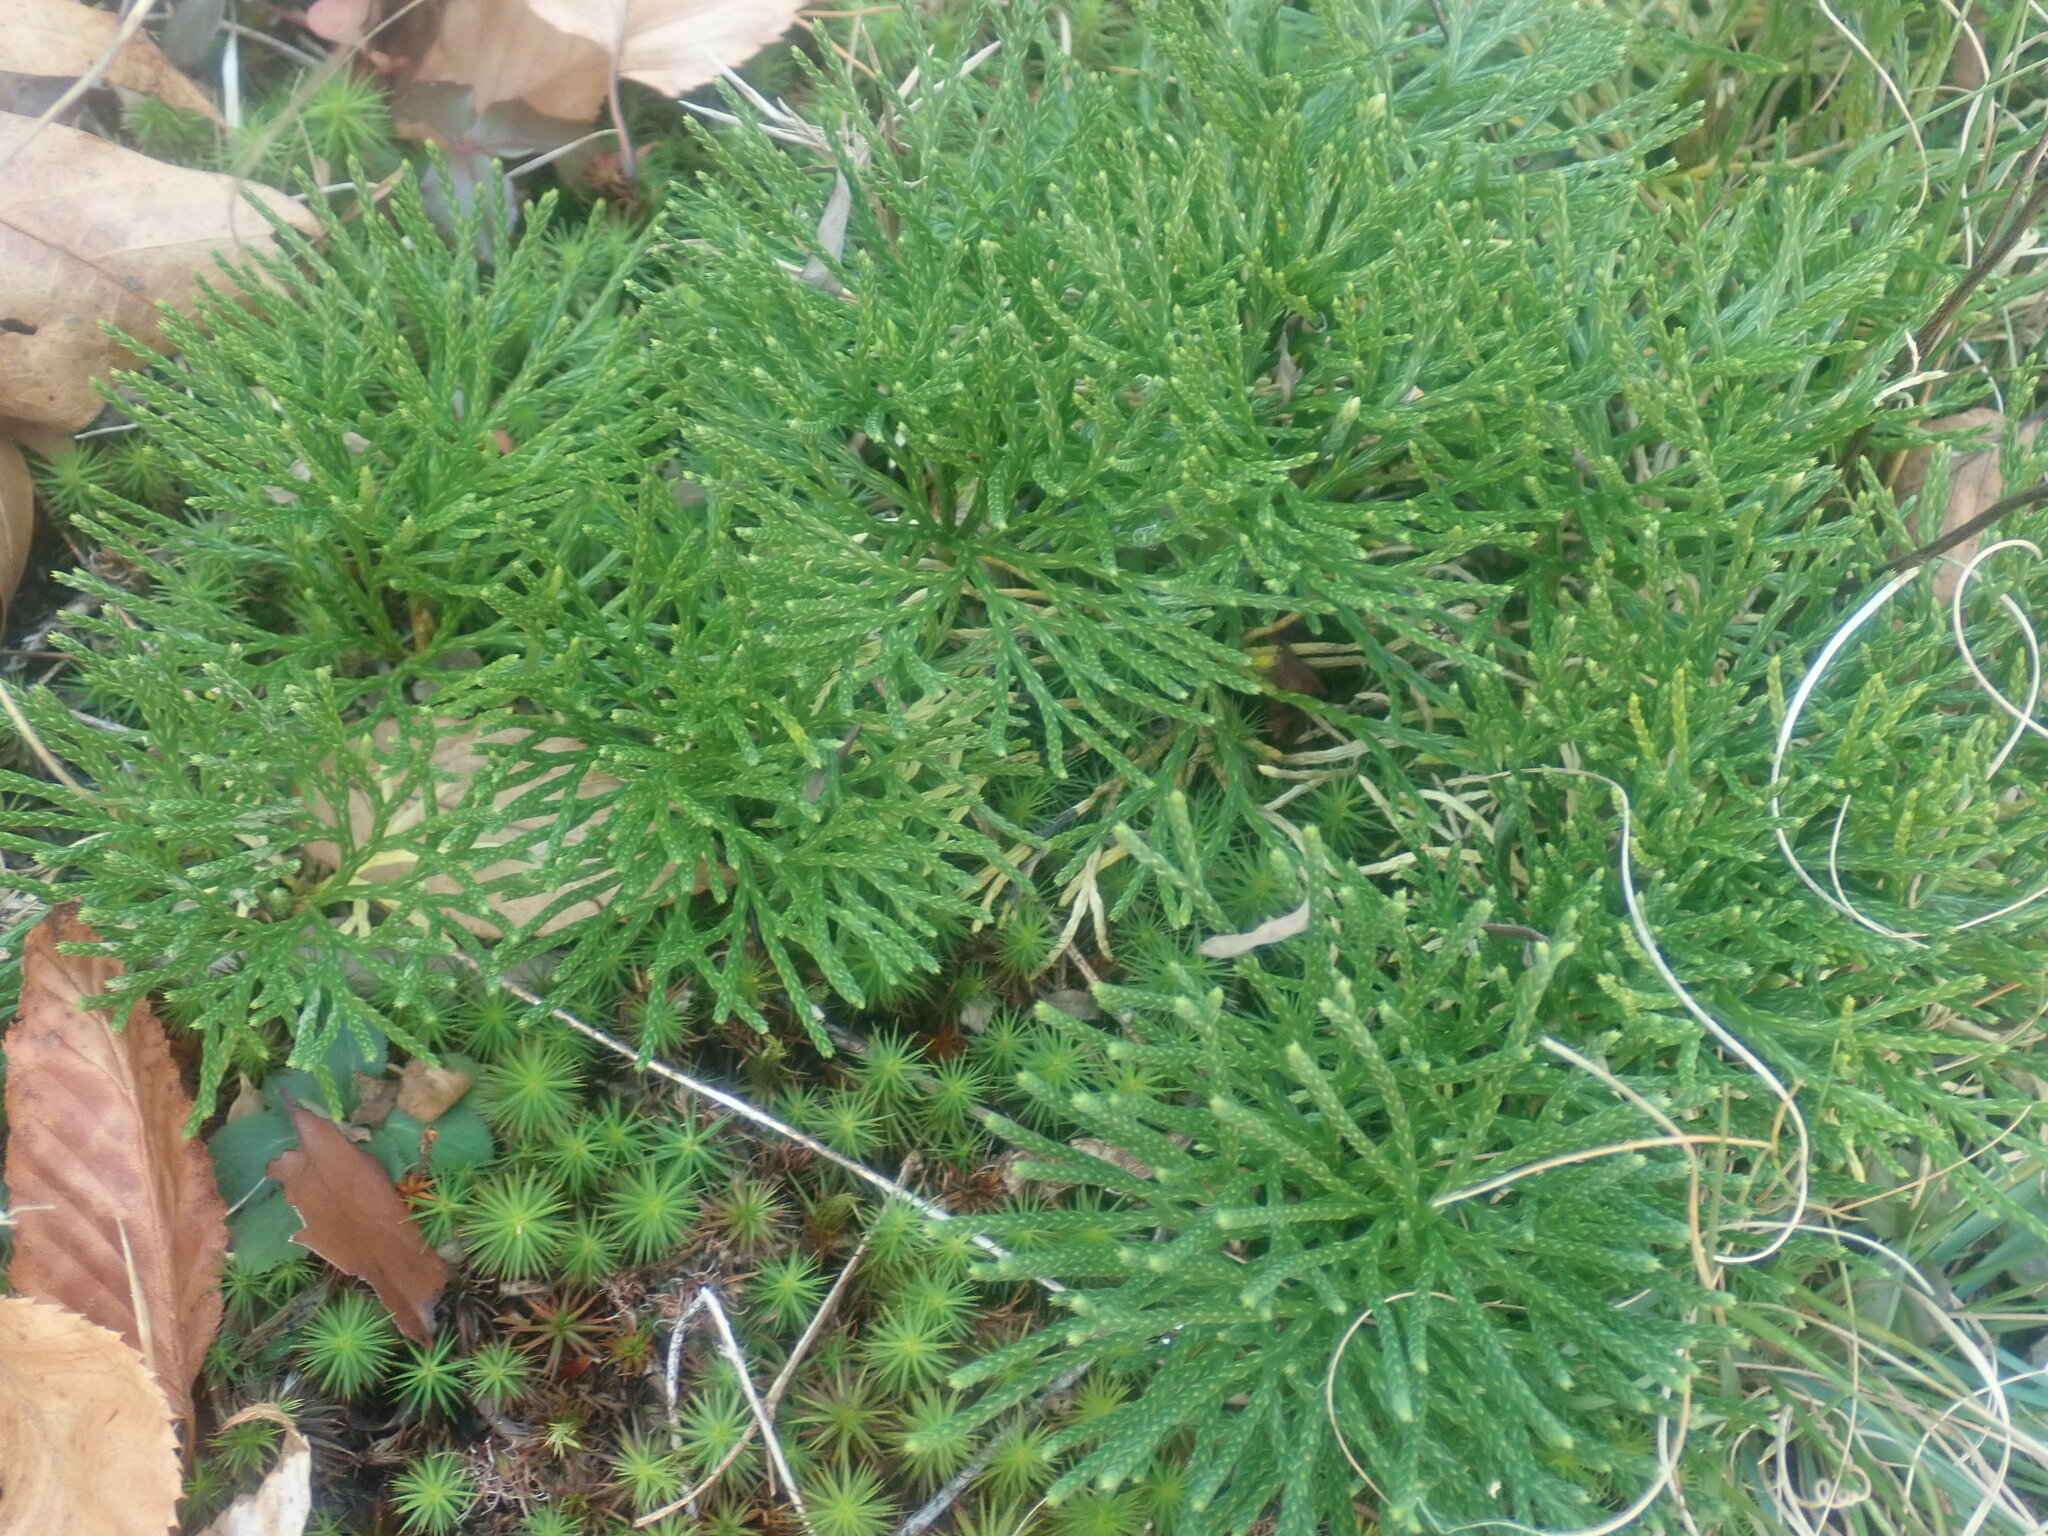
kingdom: Plantae
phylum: Tracheophyta
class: Lycopodiopsida
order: Lycopodiales
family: Lycopodiaceae
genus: Diphasiastrum
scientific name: Diphasiastrum tristachyum
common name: Blue ground-cedar
